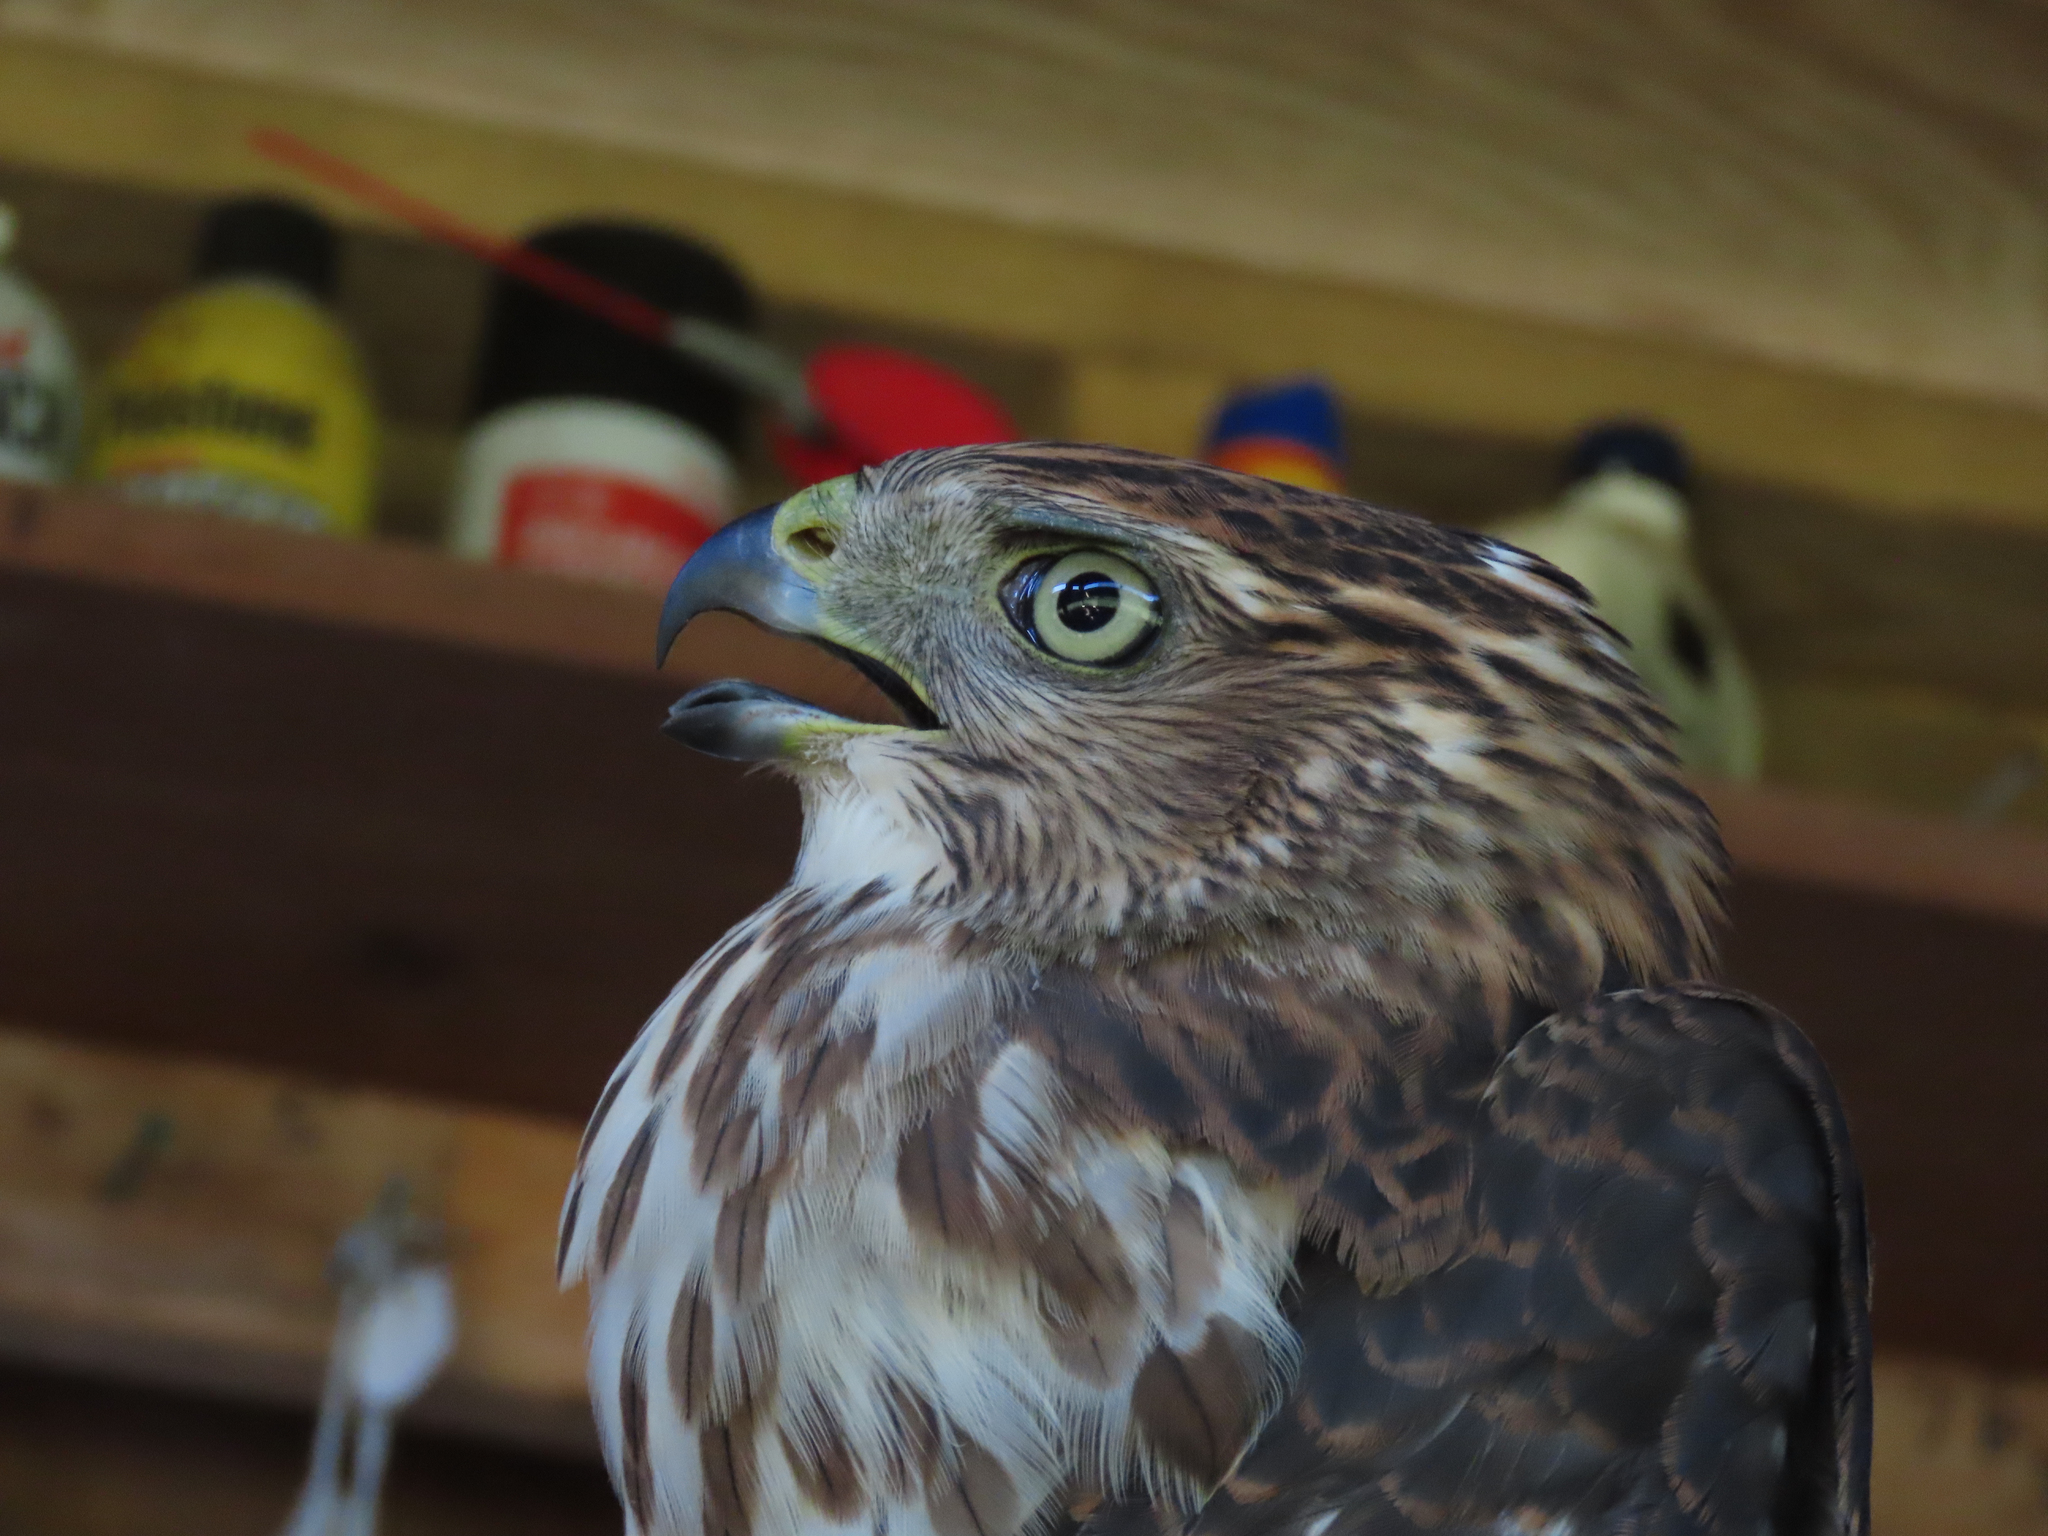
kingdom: Animalia
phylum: Chordata
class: Aves
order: Accipitriformes
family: Accipitridae
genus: Accipiter
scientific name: Accipiter cooperii
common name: Cooper's hawk
